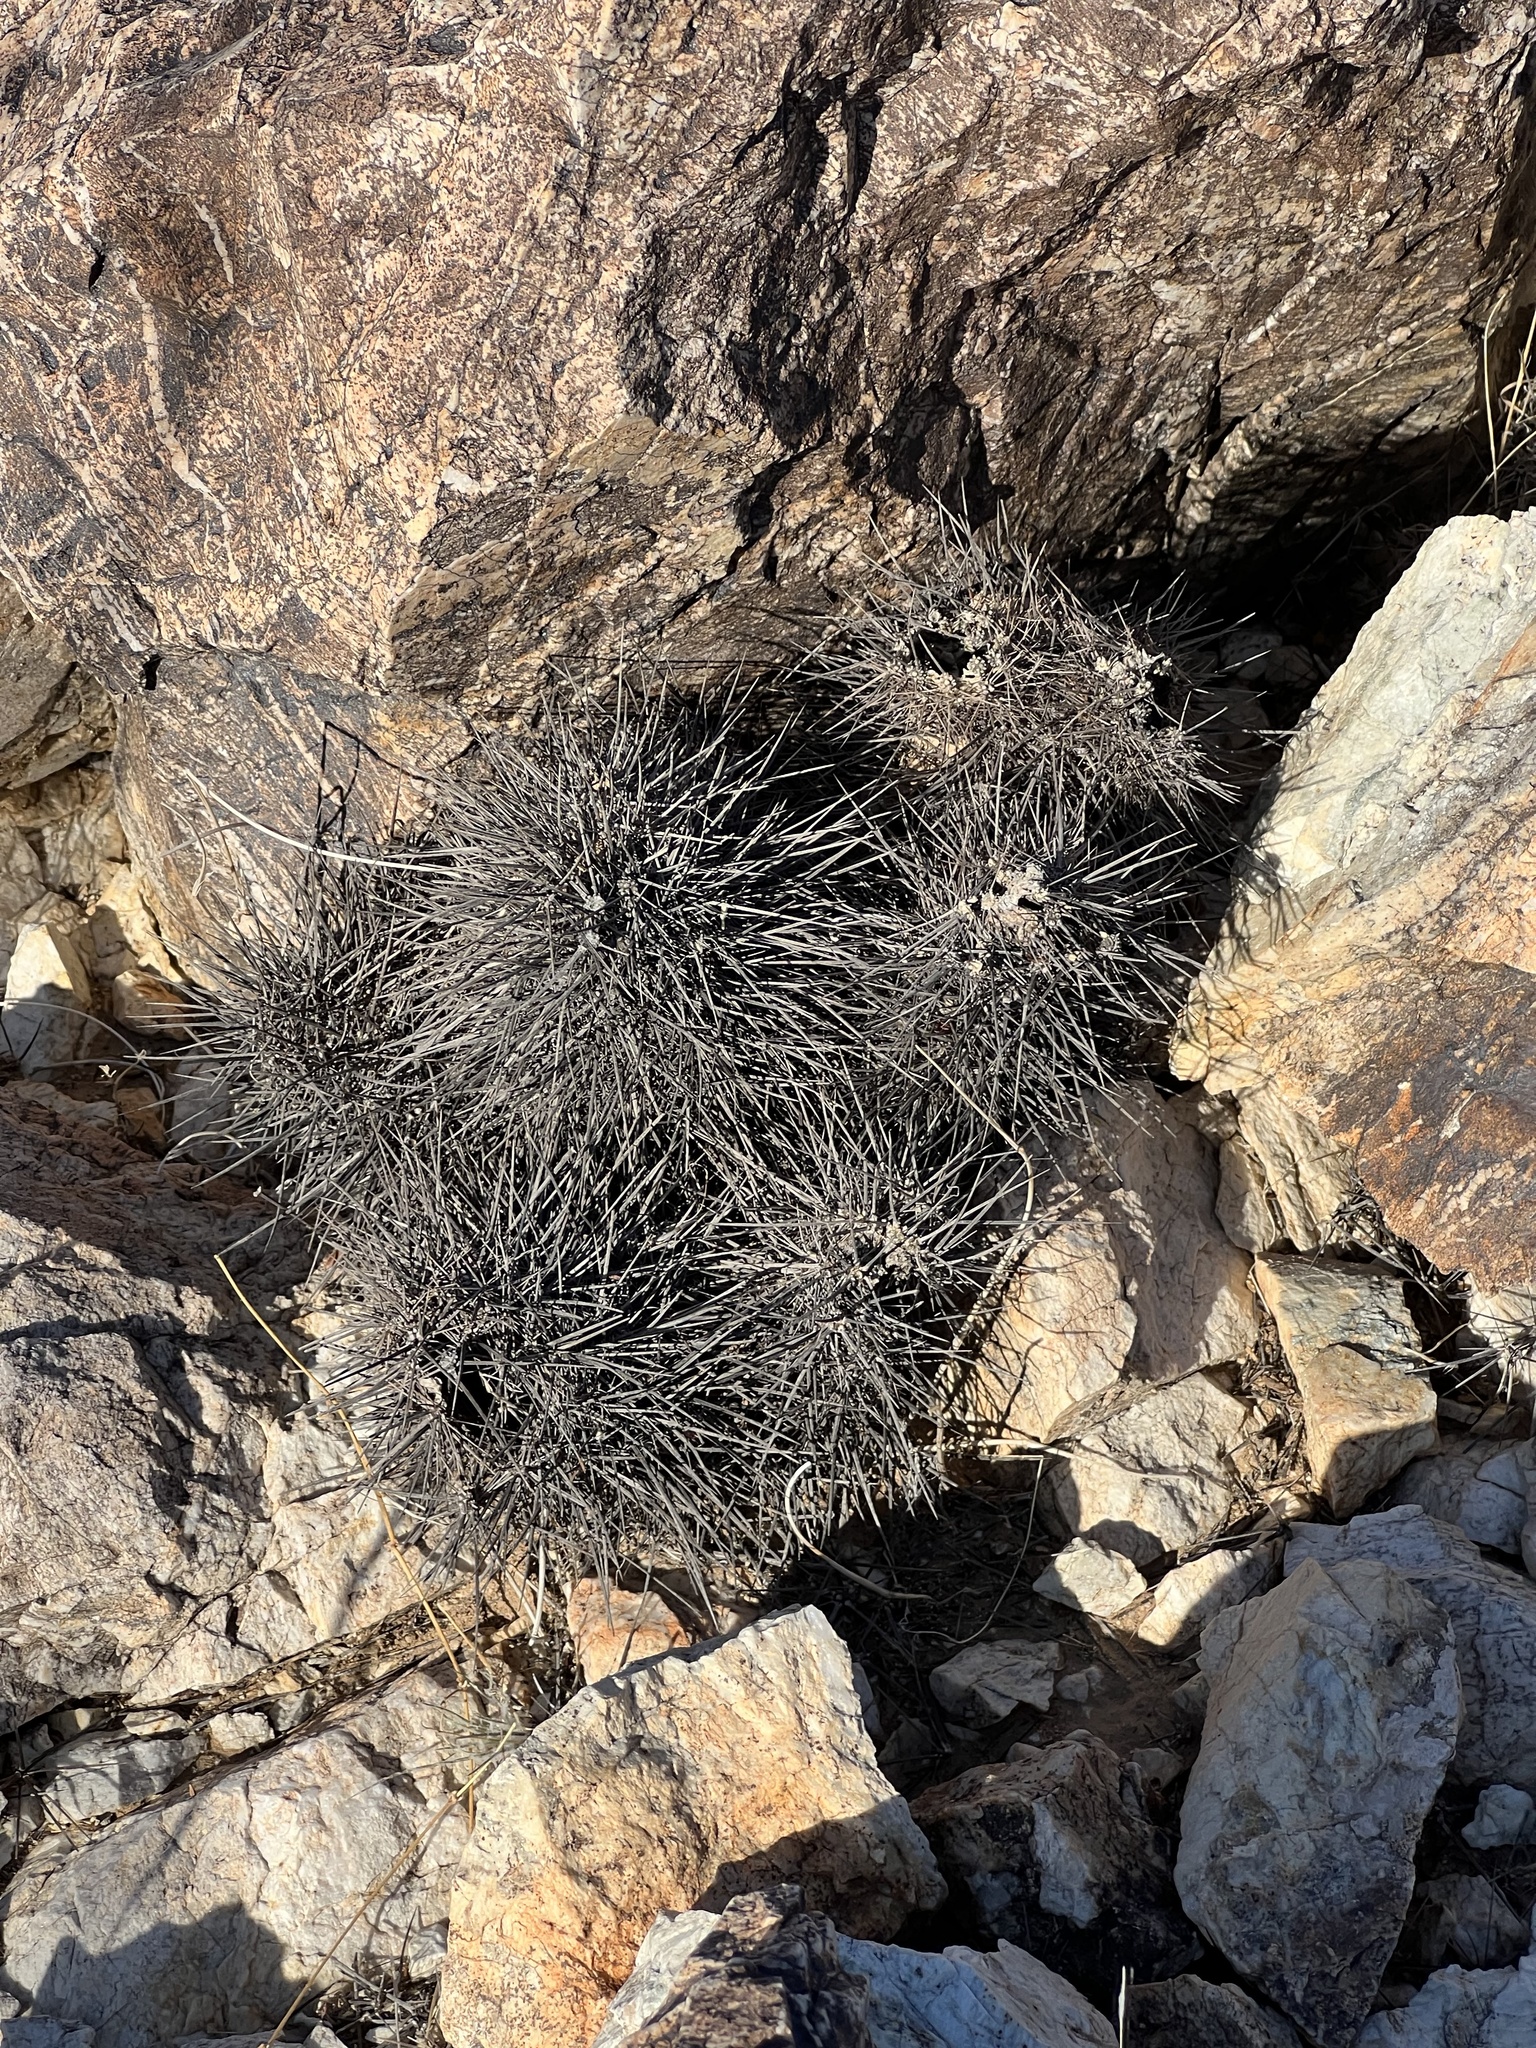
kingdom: Plantae
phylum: Tracheophyta
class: Magnoliopsida
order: Caryophyllales
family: Cactaceae
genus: Echinocereus
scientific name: Echinocereus engelmannii
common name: Engelmann's hedgehog cactus
